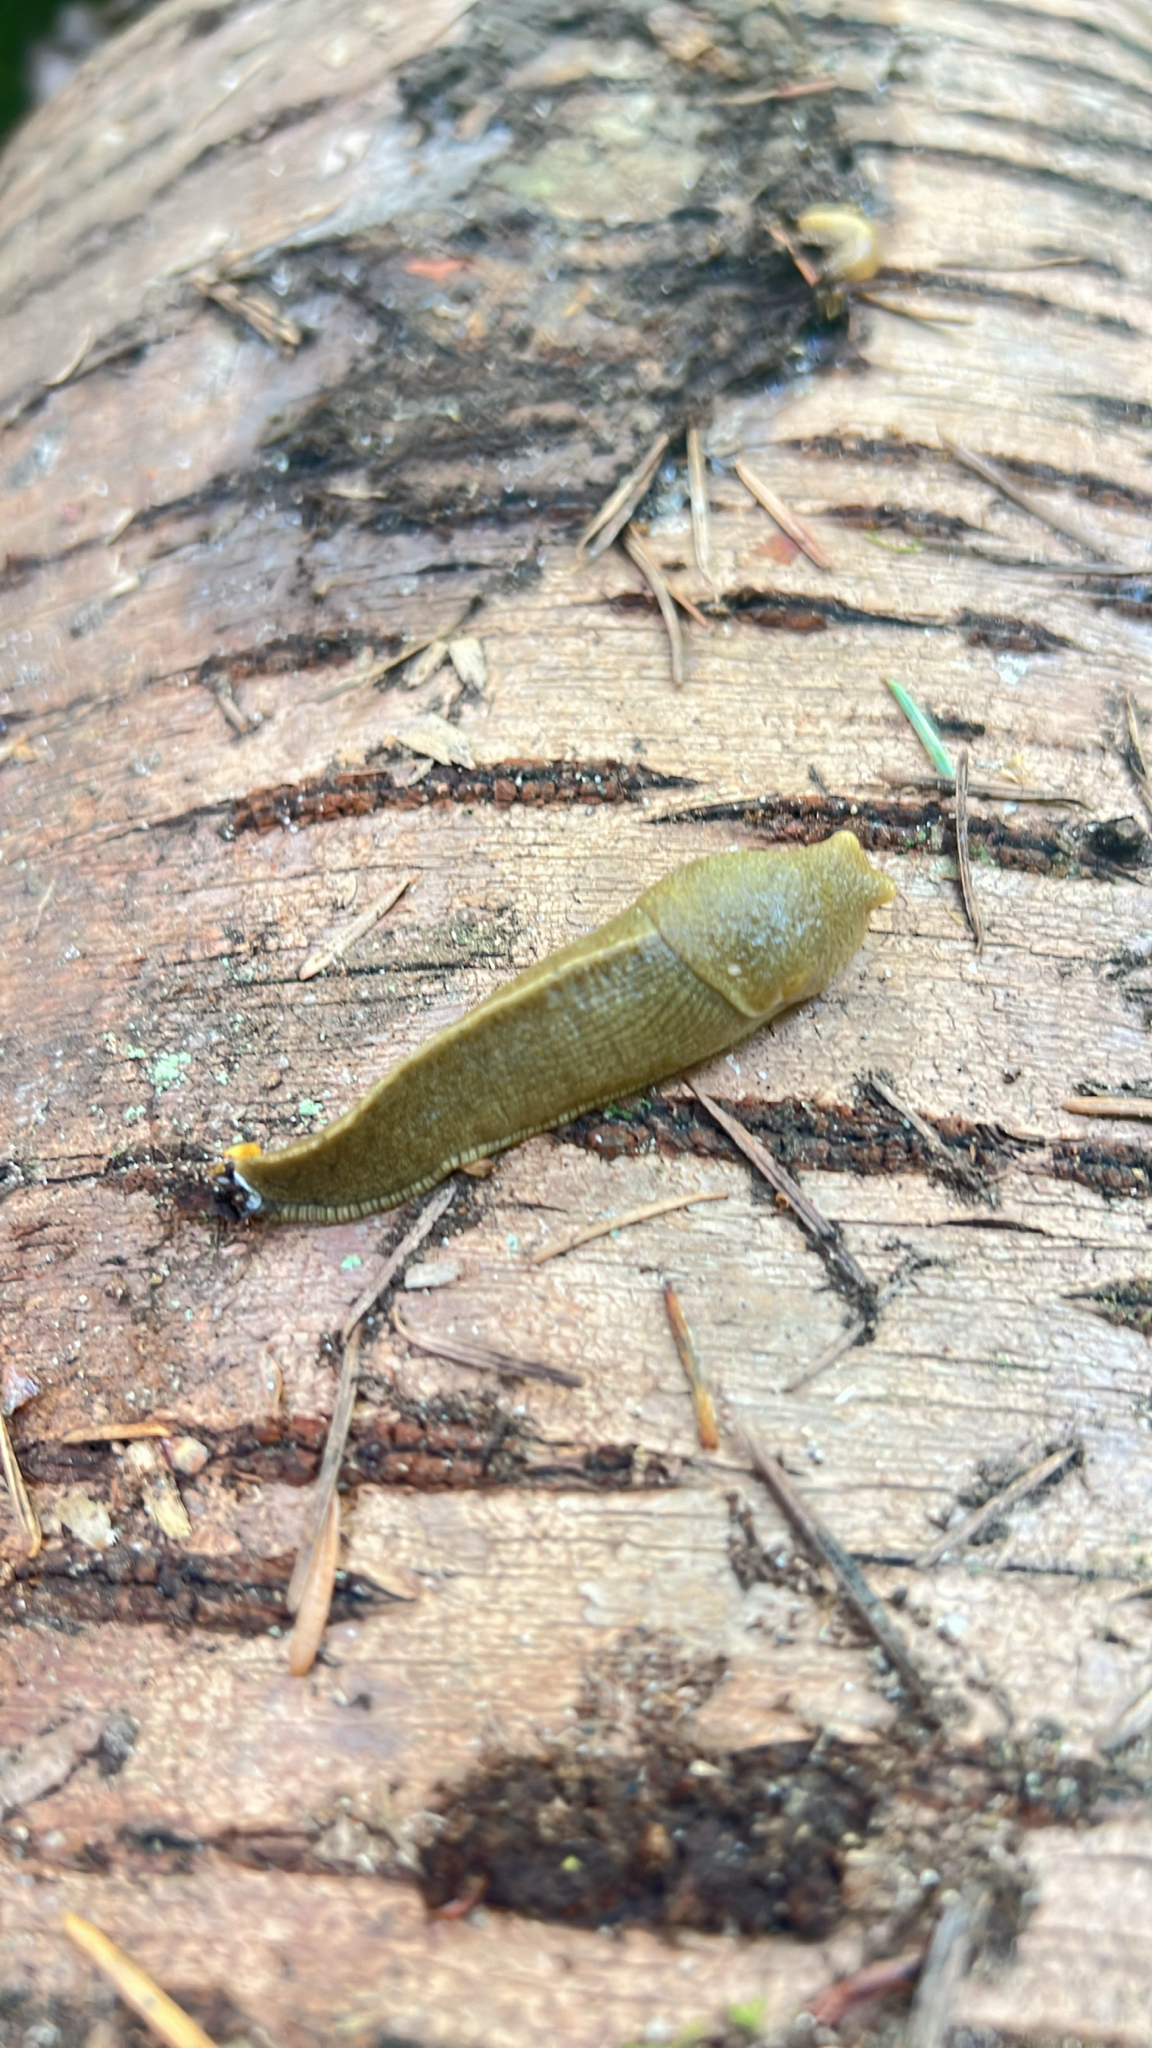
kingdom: Animalia
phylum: Mollusca
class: Gastropoda
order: Stylommatophora
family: Ariolimacidae
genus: Ariolimax
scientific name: Ariolimax columbianus
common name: Pacific banana slug
